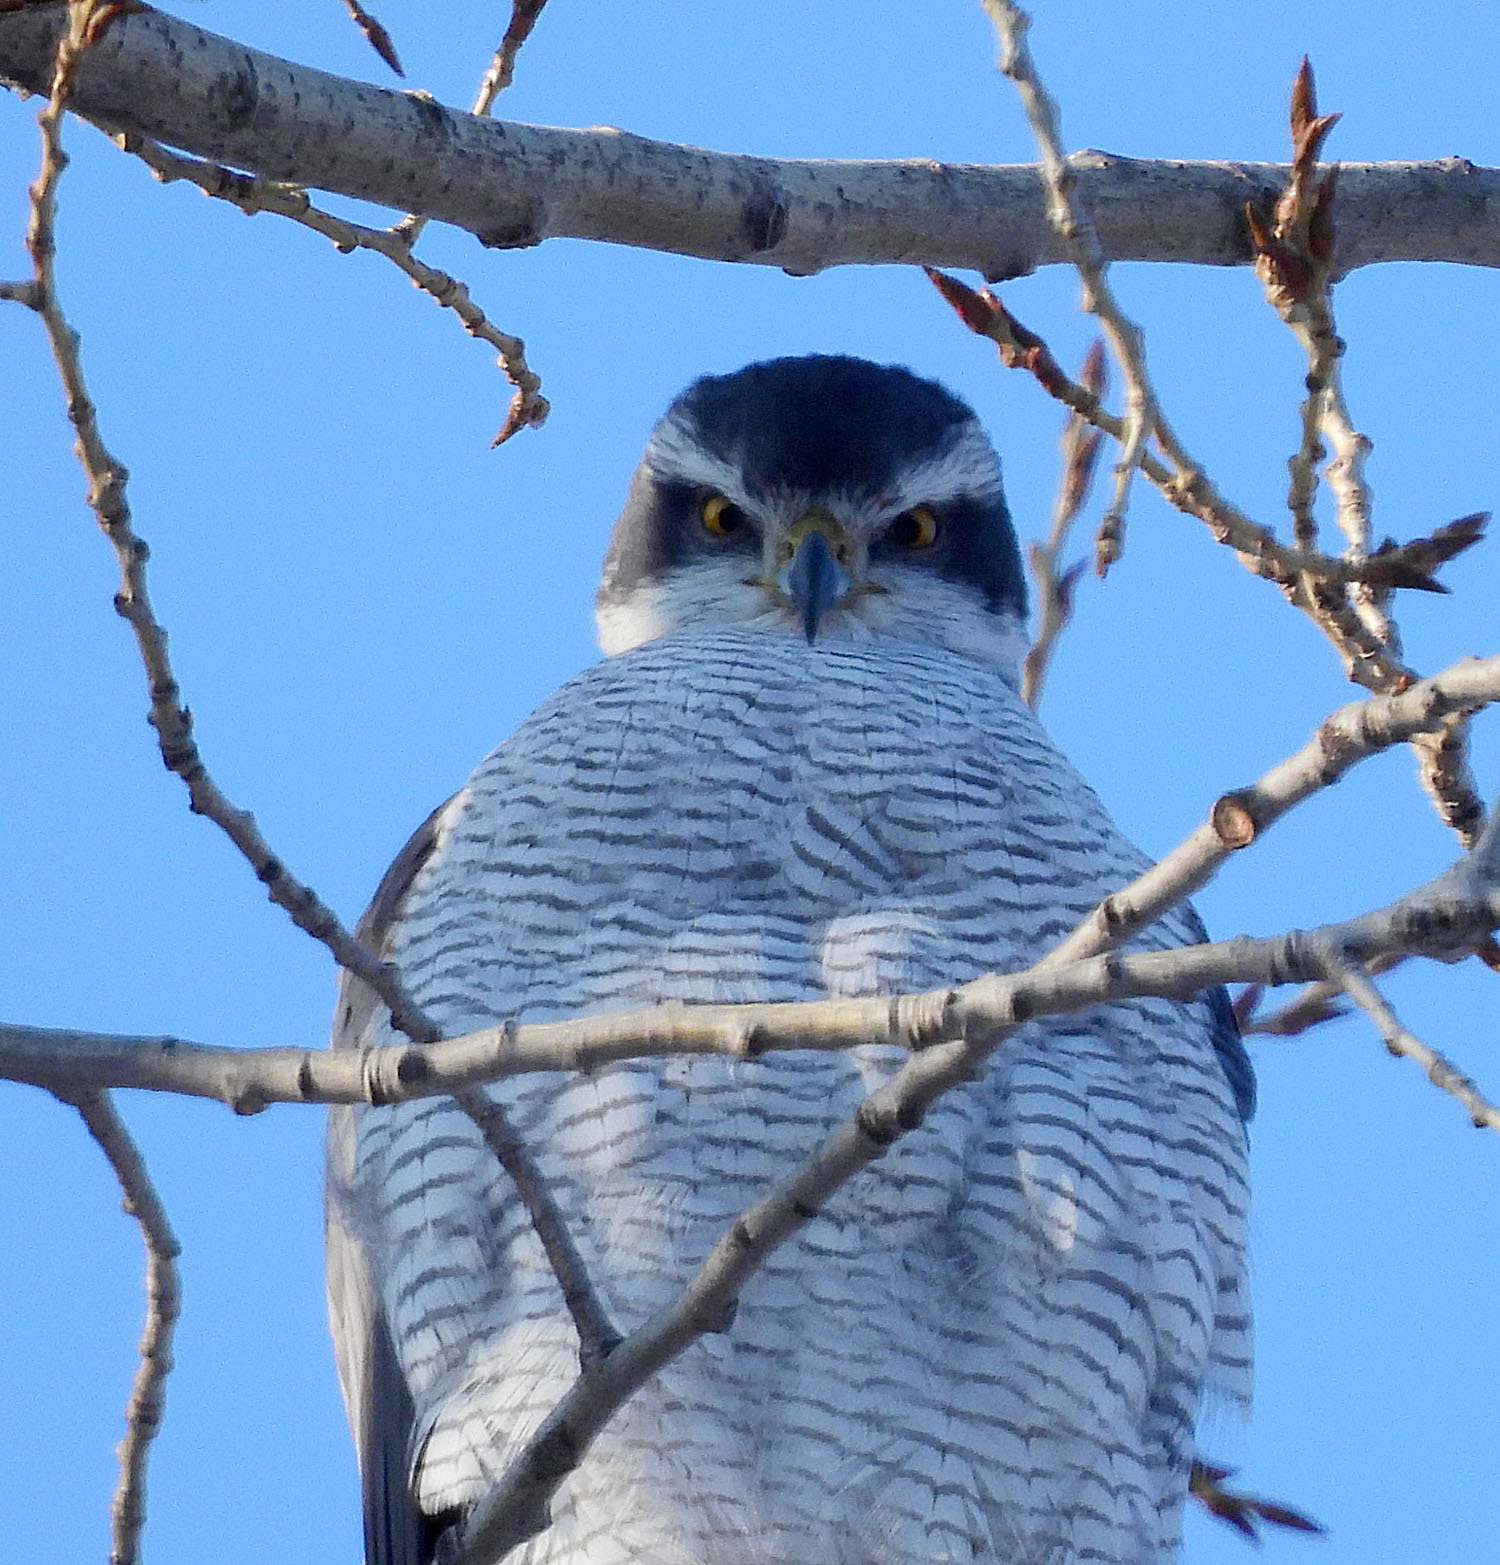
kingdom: Animalia
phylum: Chordata
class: Aves
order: Accipitriformes
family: Accipitridae
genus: Accipiter
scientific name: Accipiter gentilis
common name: Northern goshawk
